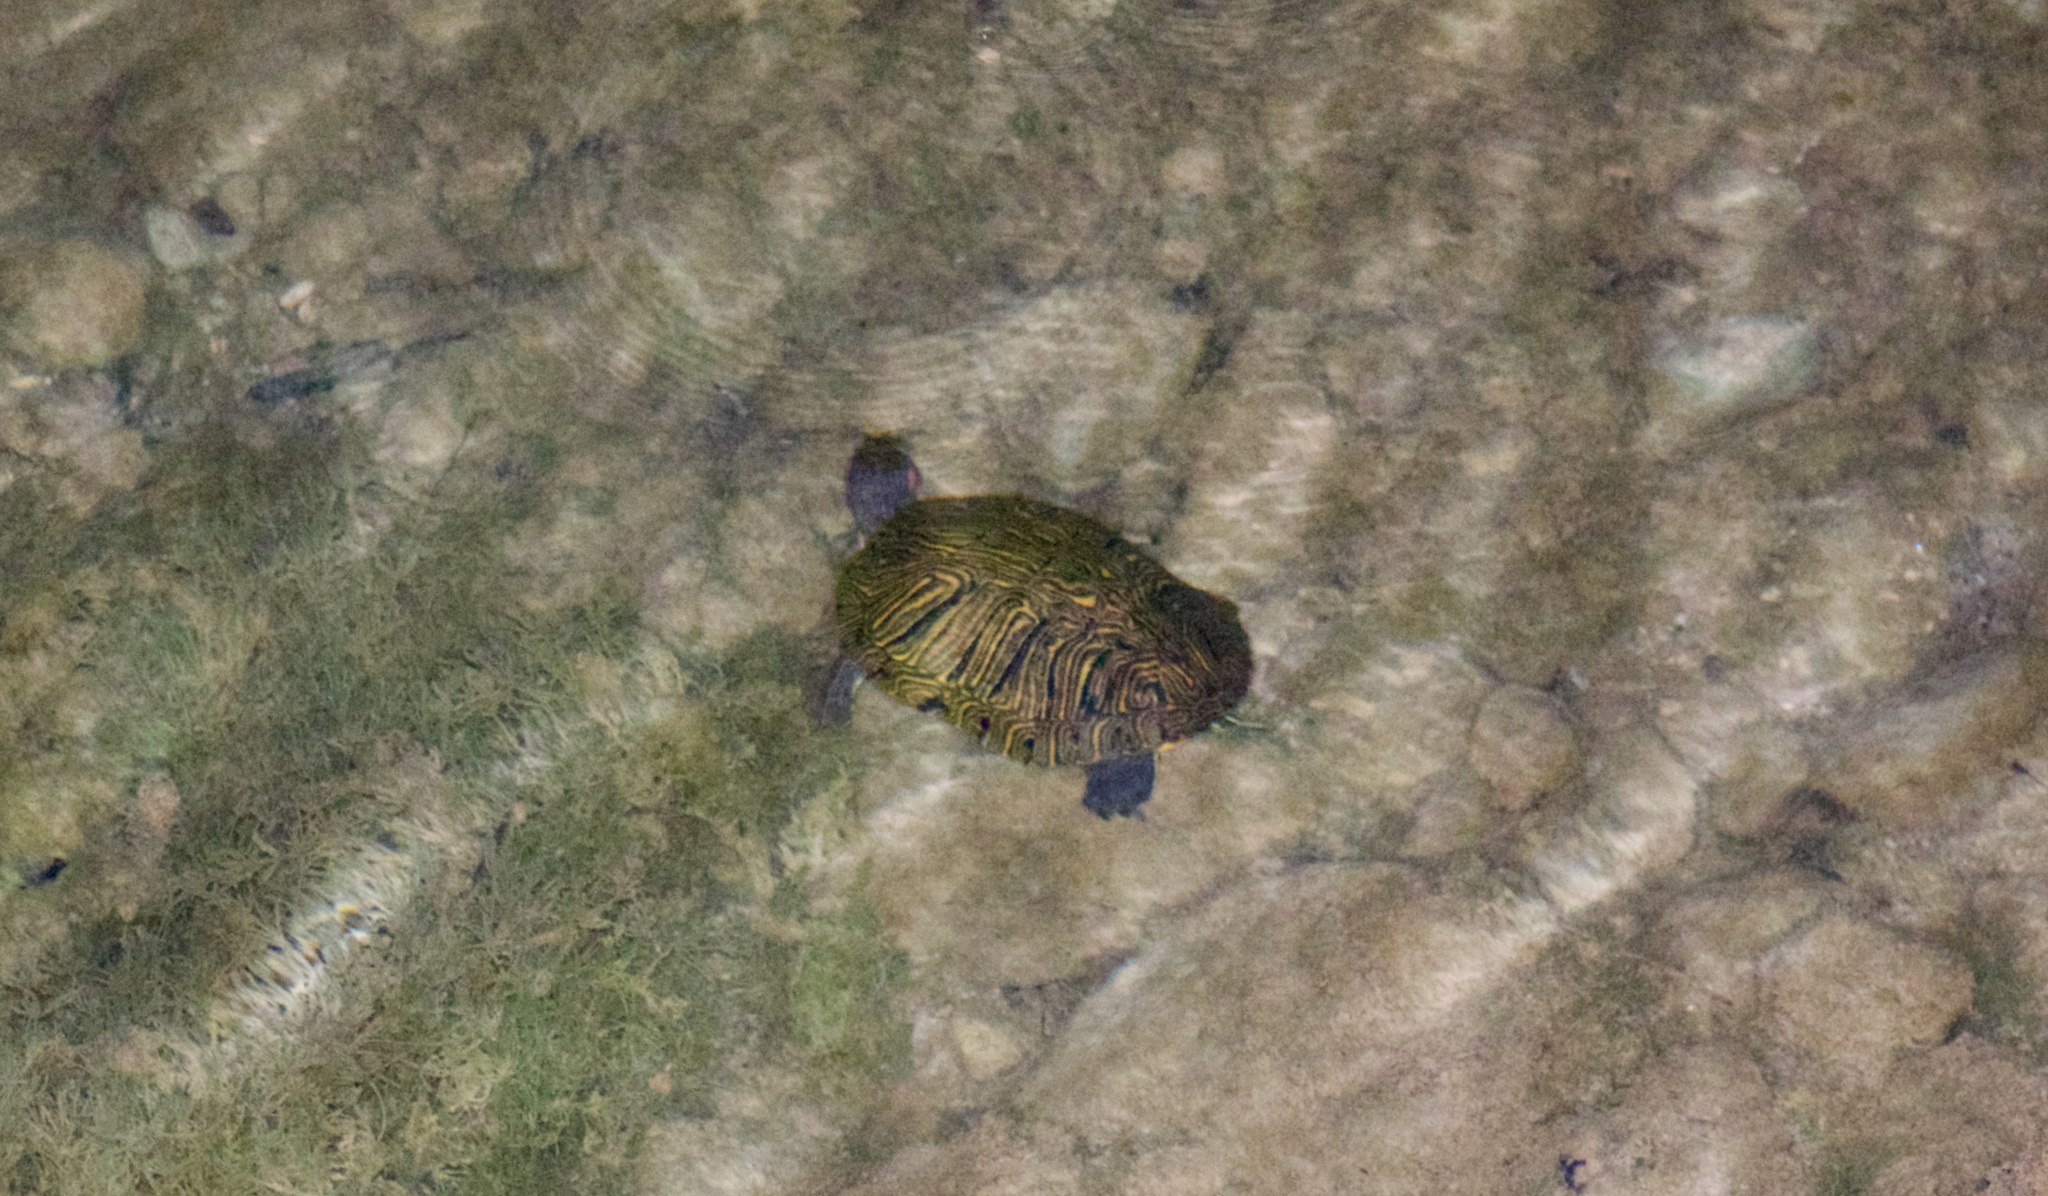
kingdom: Animalia
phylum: Chordata
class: Testudines
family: Emydidae
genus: Trachemys
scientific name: Trachemys scripta
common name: Slider
